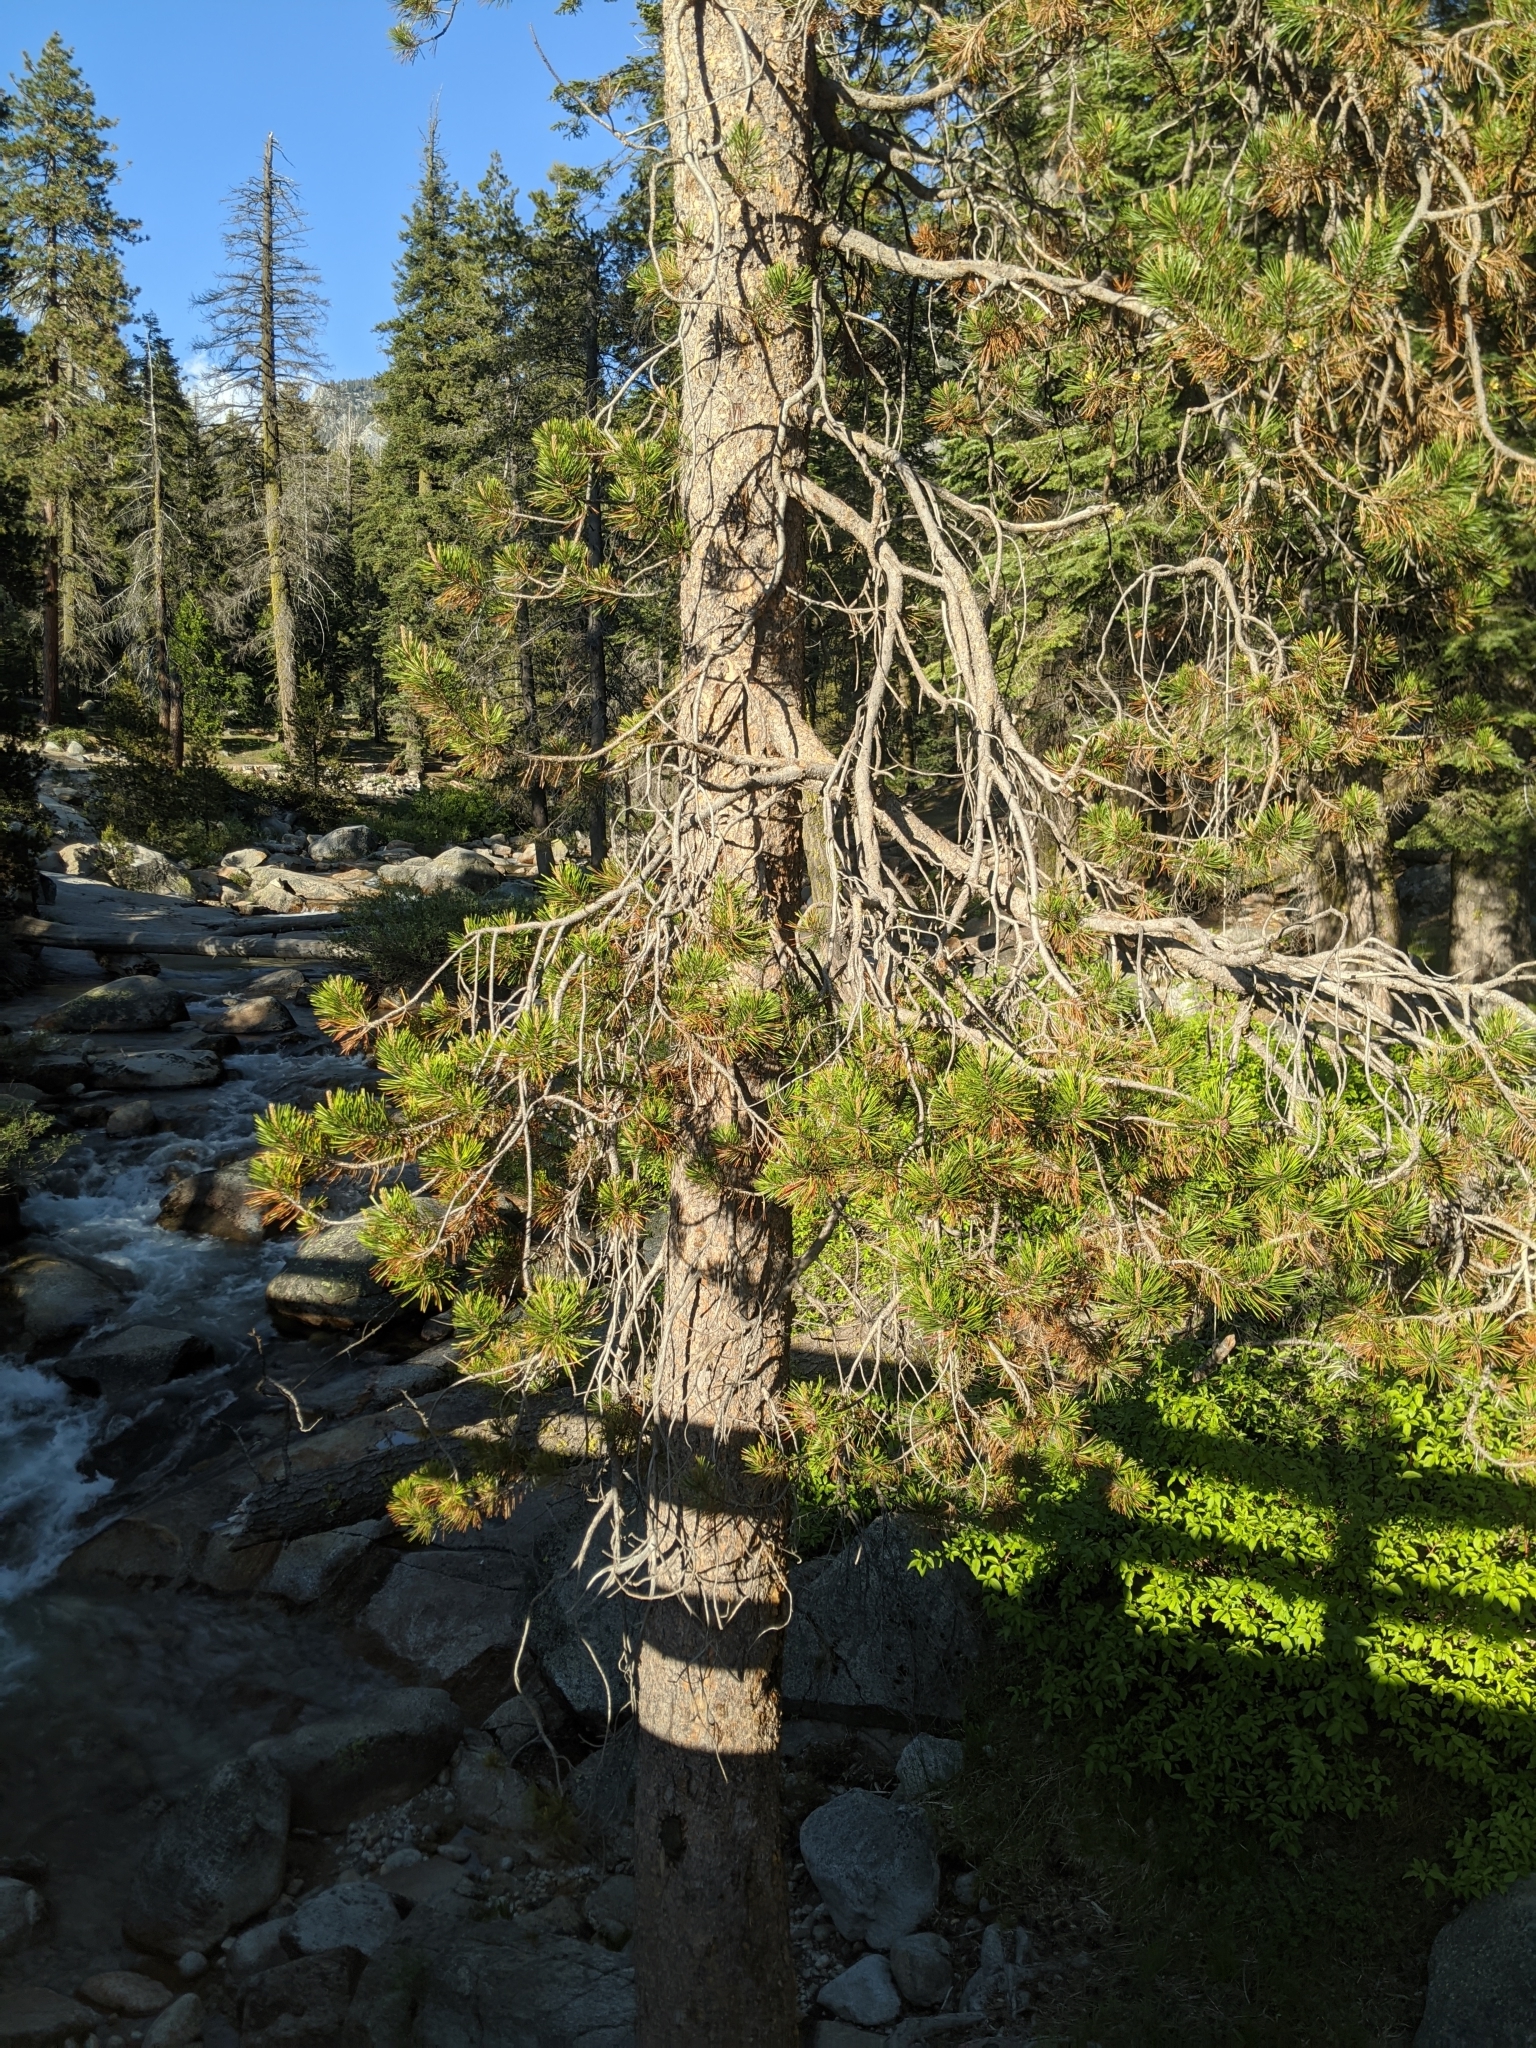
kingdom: Plantae
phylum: Tracheophyta
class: Pinopsida
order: Pinales
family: Pinaceae
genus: Pinus
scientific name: Pinus contorta
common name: Lodgepole pine
